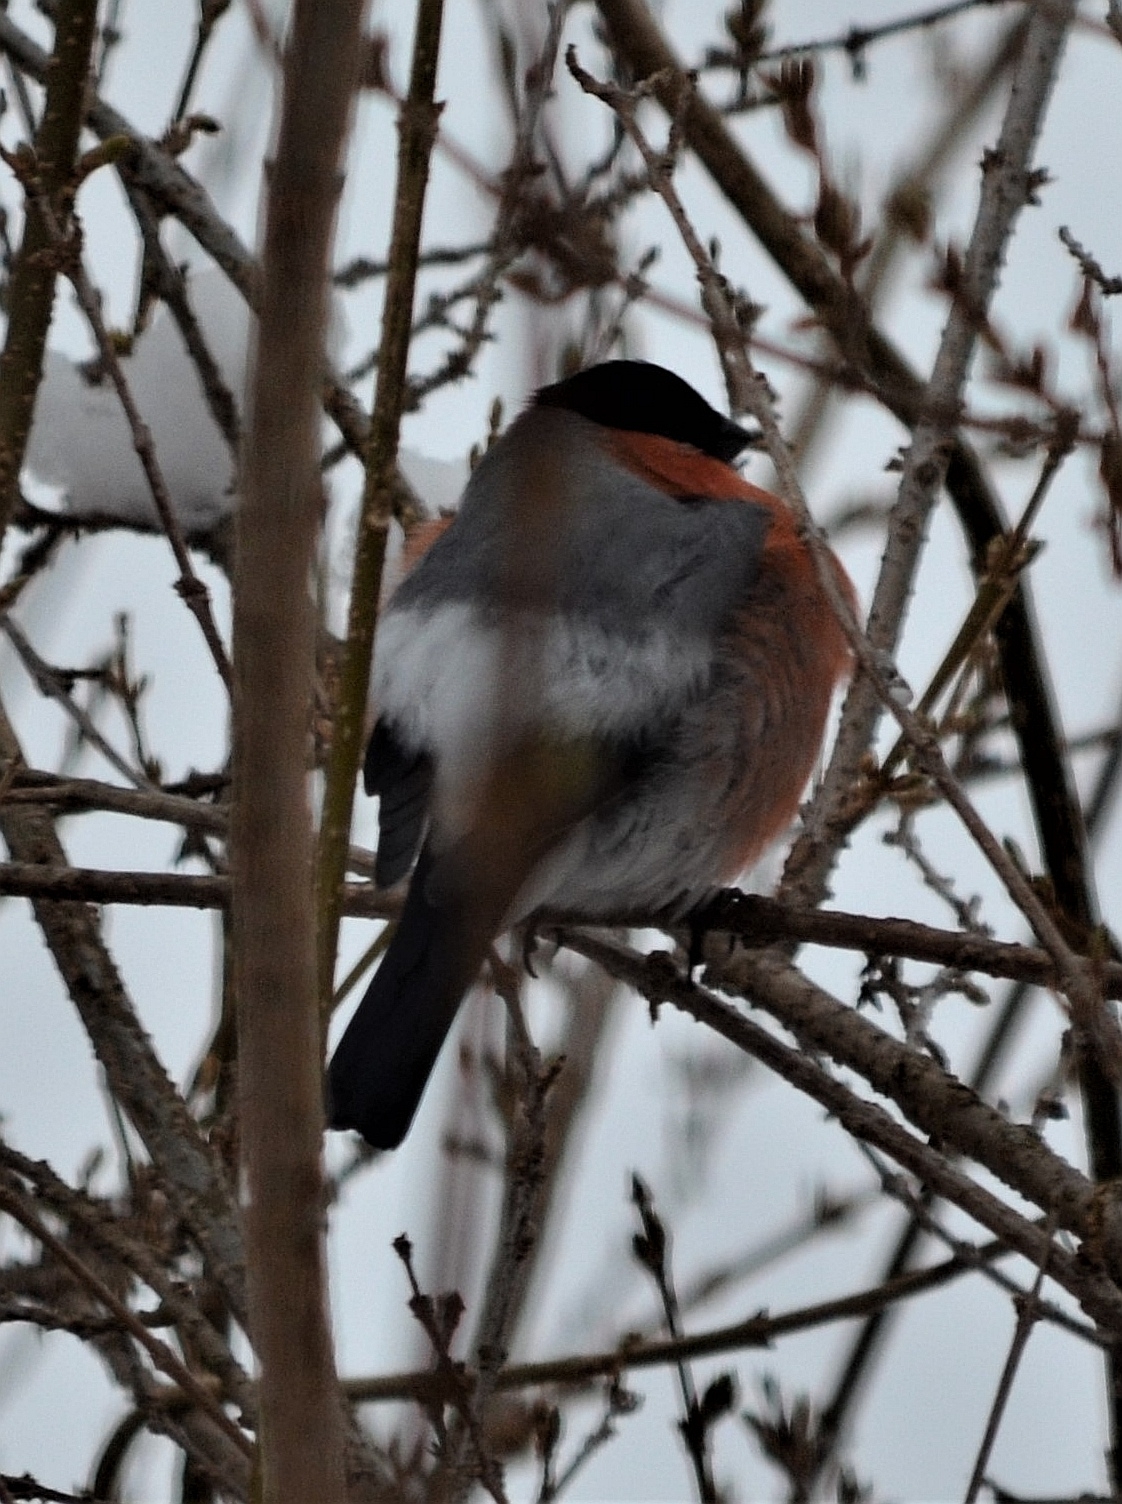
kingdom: Animalia
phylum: Chordata
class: Aves
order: Passeriformes
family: Fringillidae
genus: Pyrrhula
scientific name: Pyrrhula pyrrhula
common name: Eurasian bullfinch
